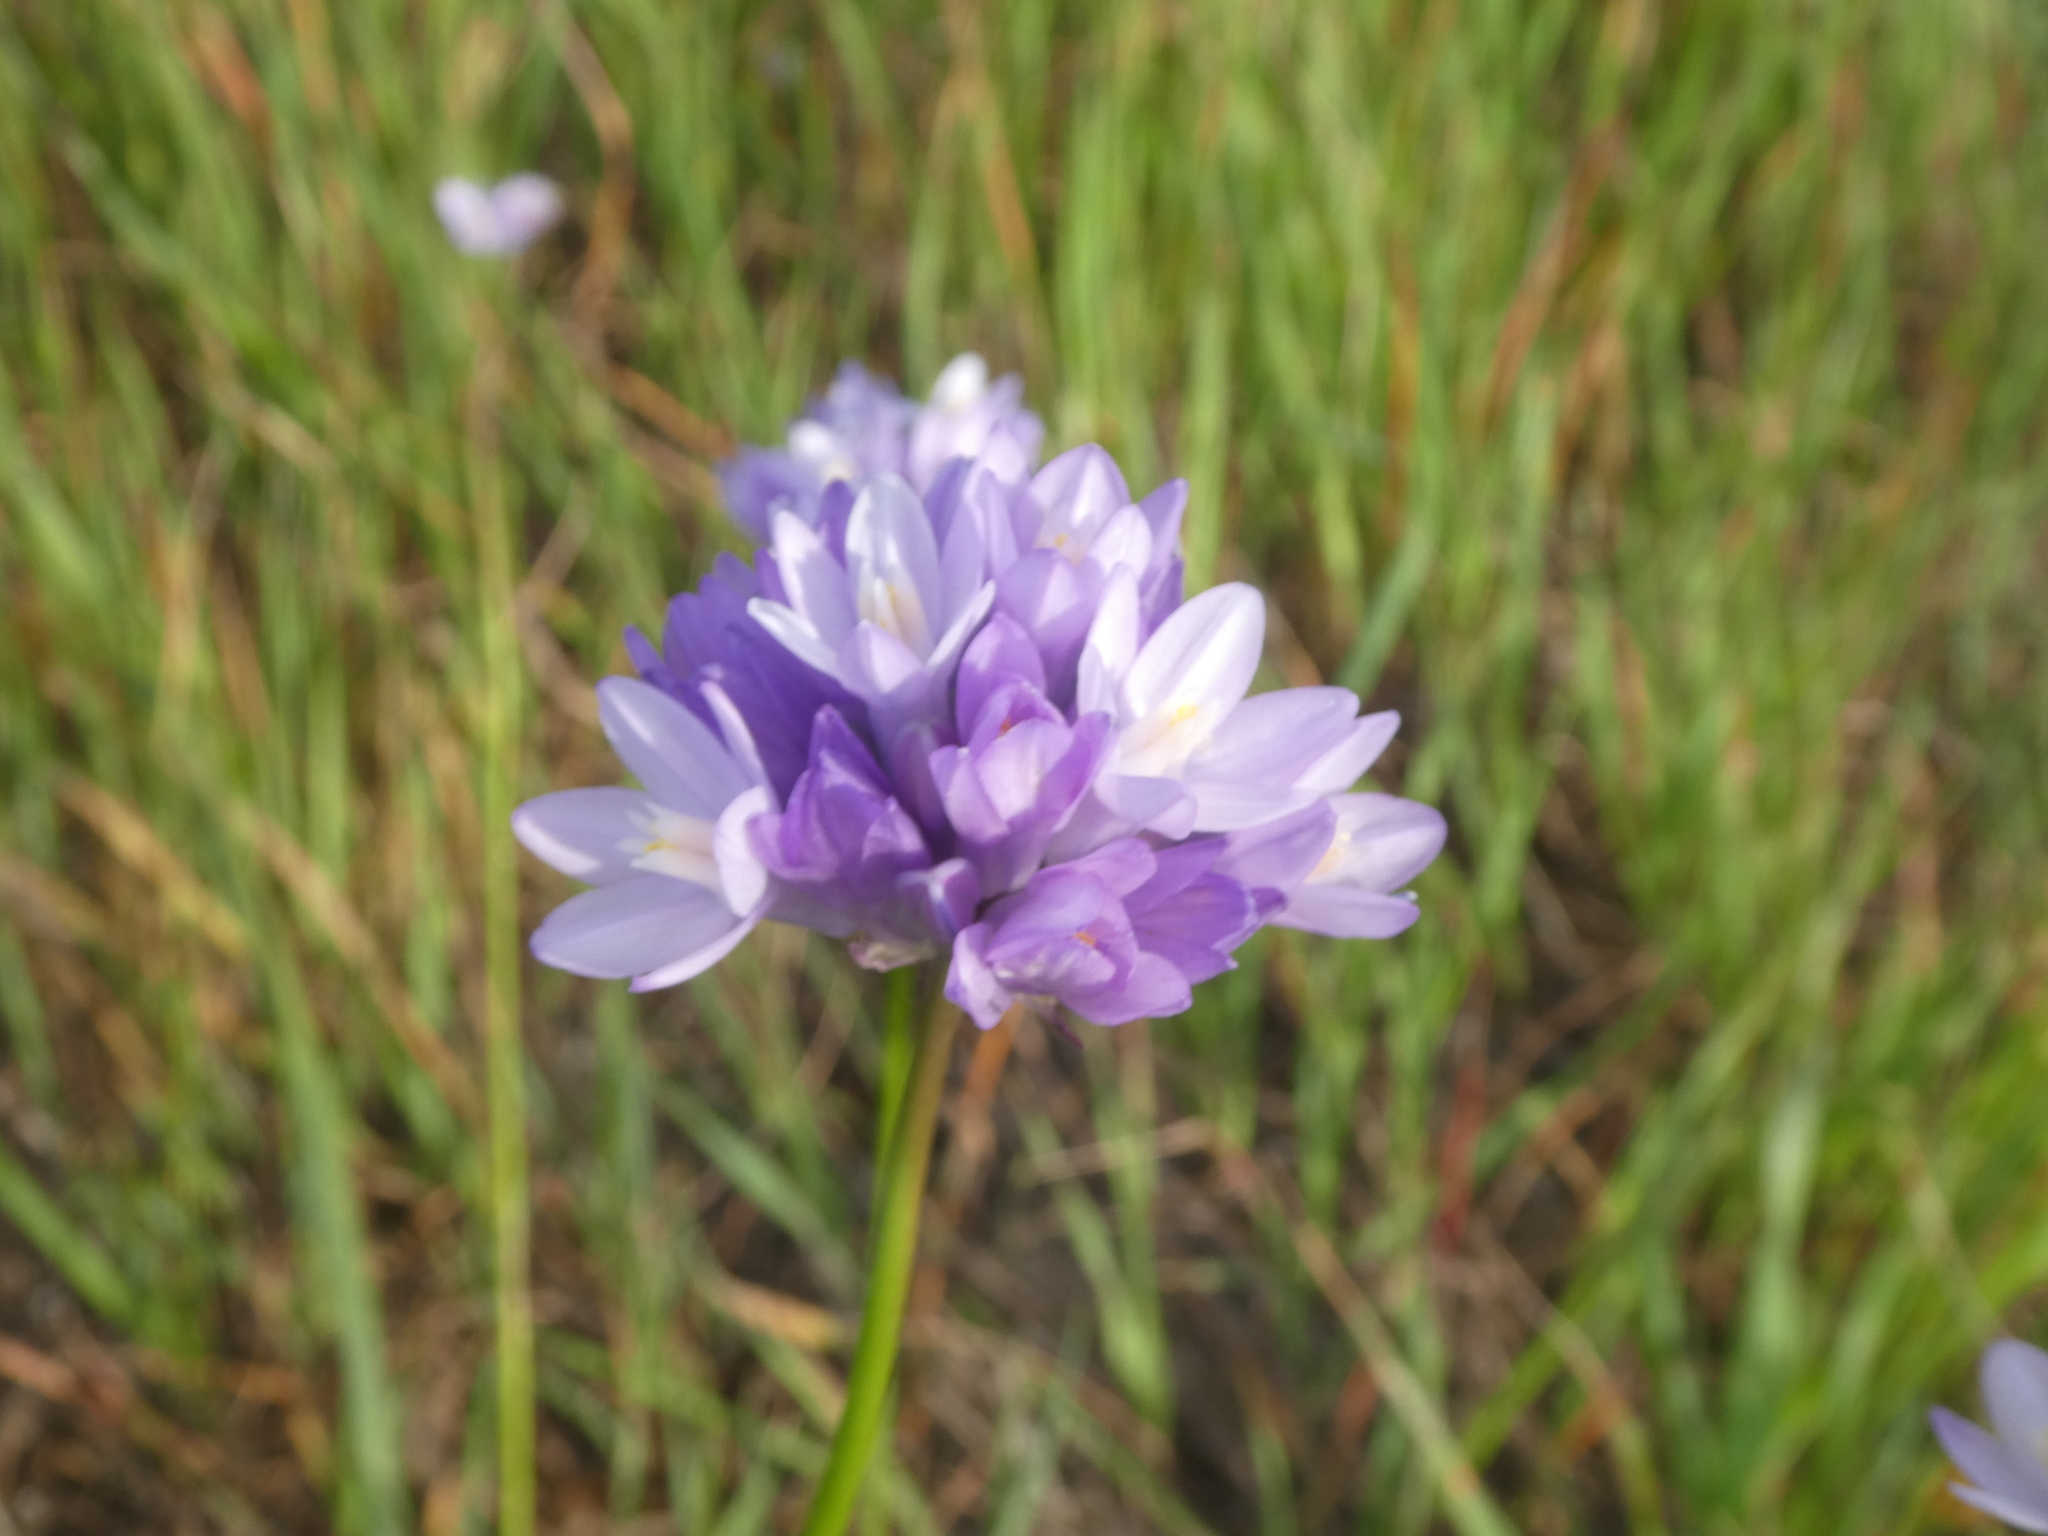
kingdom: Plantae
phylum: Tracheophyta
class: Liliopsida
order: Asparagales
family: Asparagaceae
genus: Dipterostemon
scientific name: Dipterostemon capitatus
